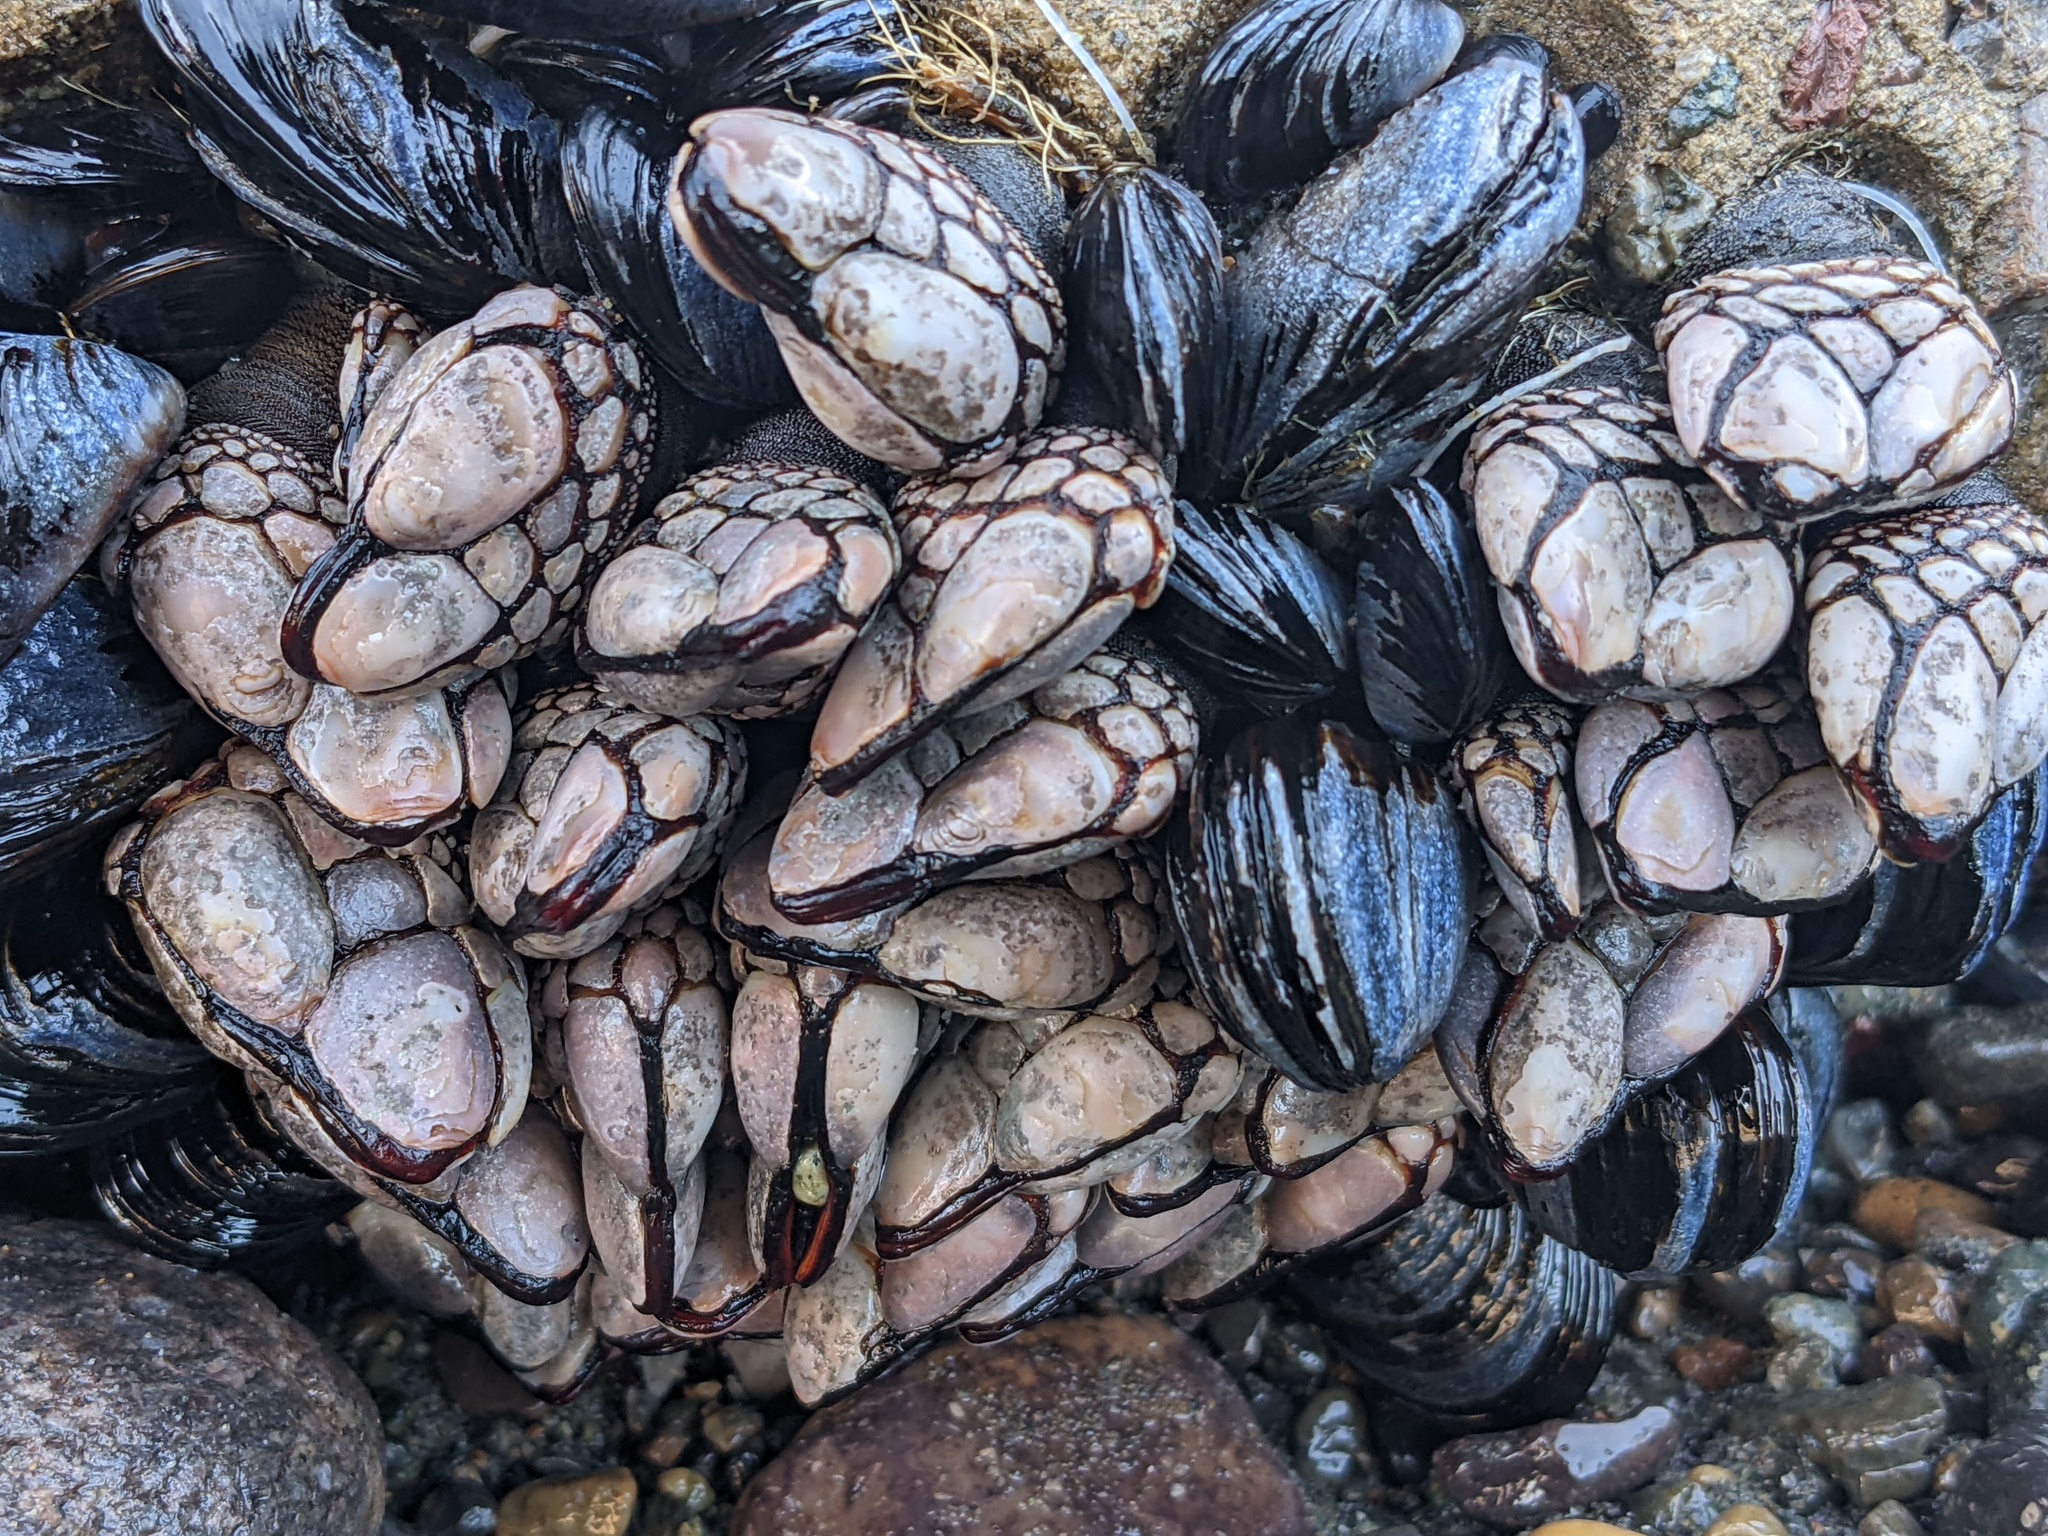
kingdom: Animalia
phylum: Arthropoda
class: Maxillopoda
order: Pedunculata
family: Pollicipedidae
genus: Pollicipes
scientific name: Pollicipes polymerus
